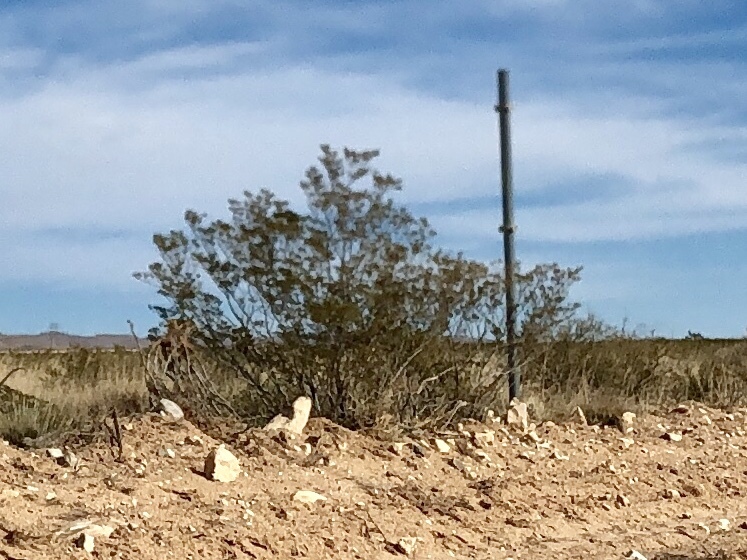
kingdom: Plantae
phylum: Tracheophyta
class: Magnoliopsida
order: Zygophyllales
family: Zygophyllaceae
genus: Larrea
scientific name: Larrea tridentata
